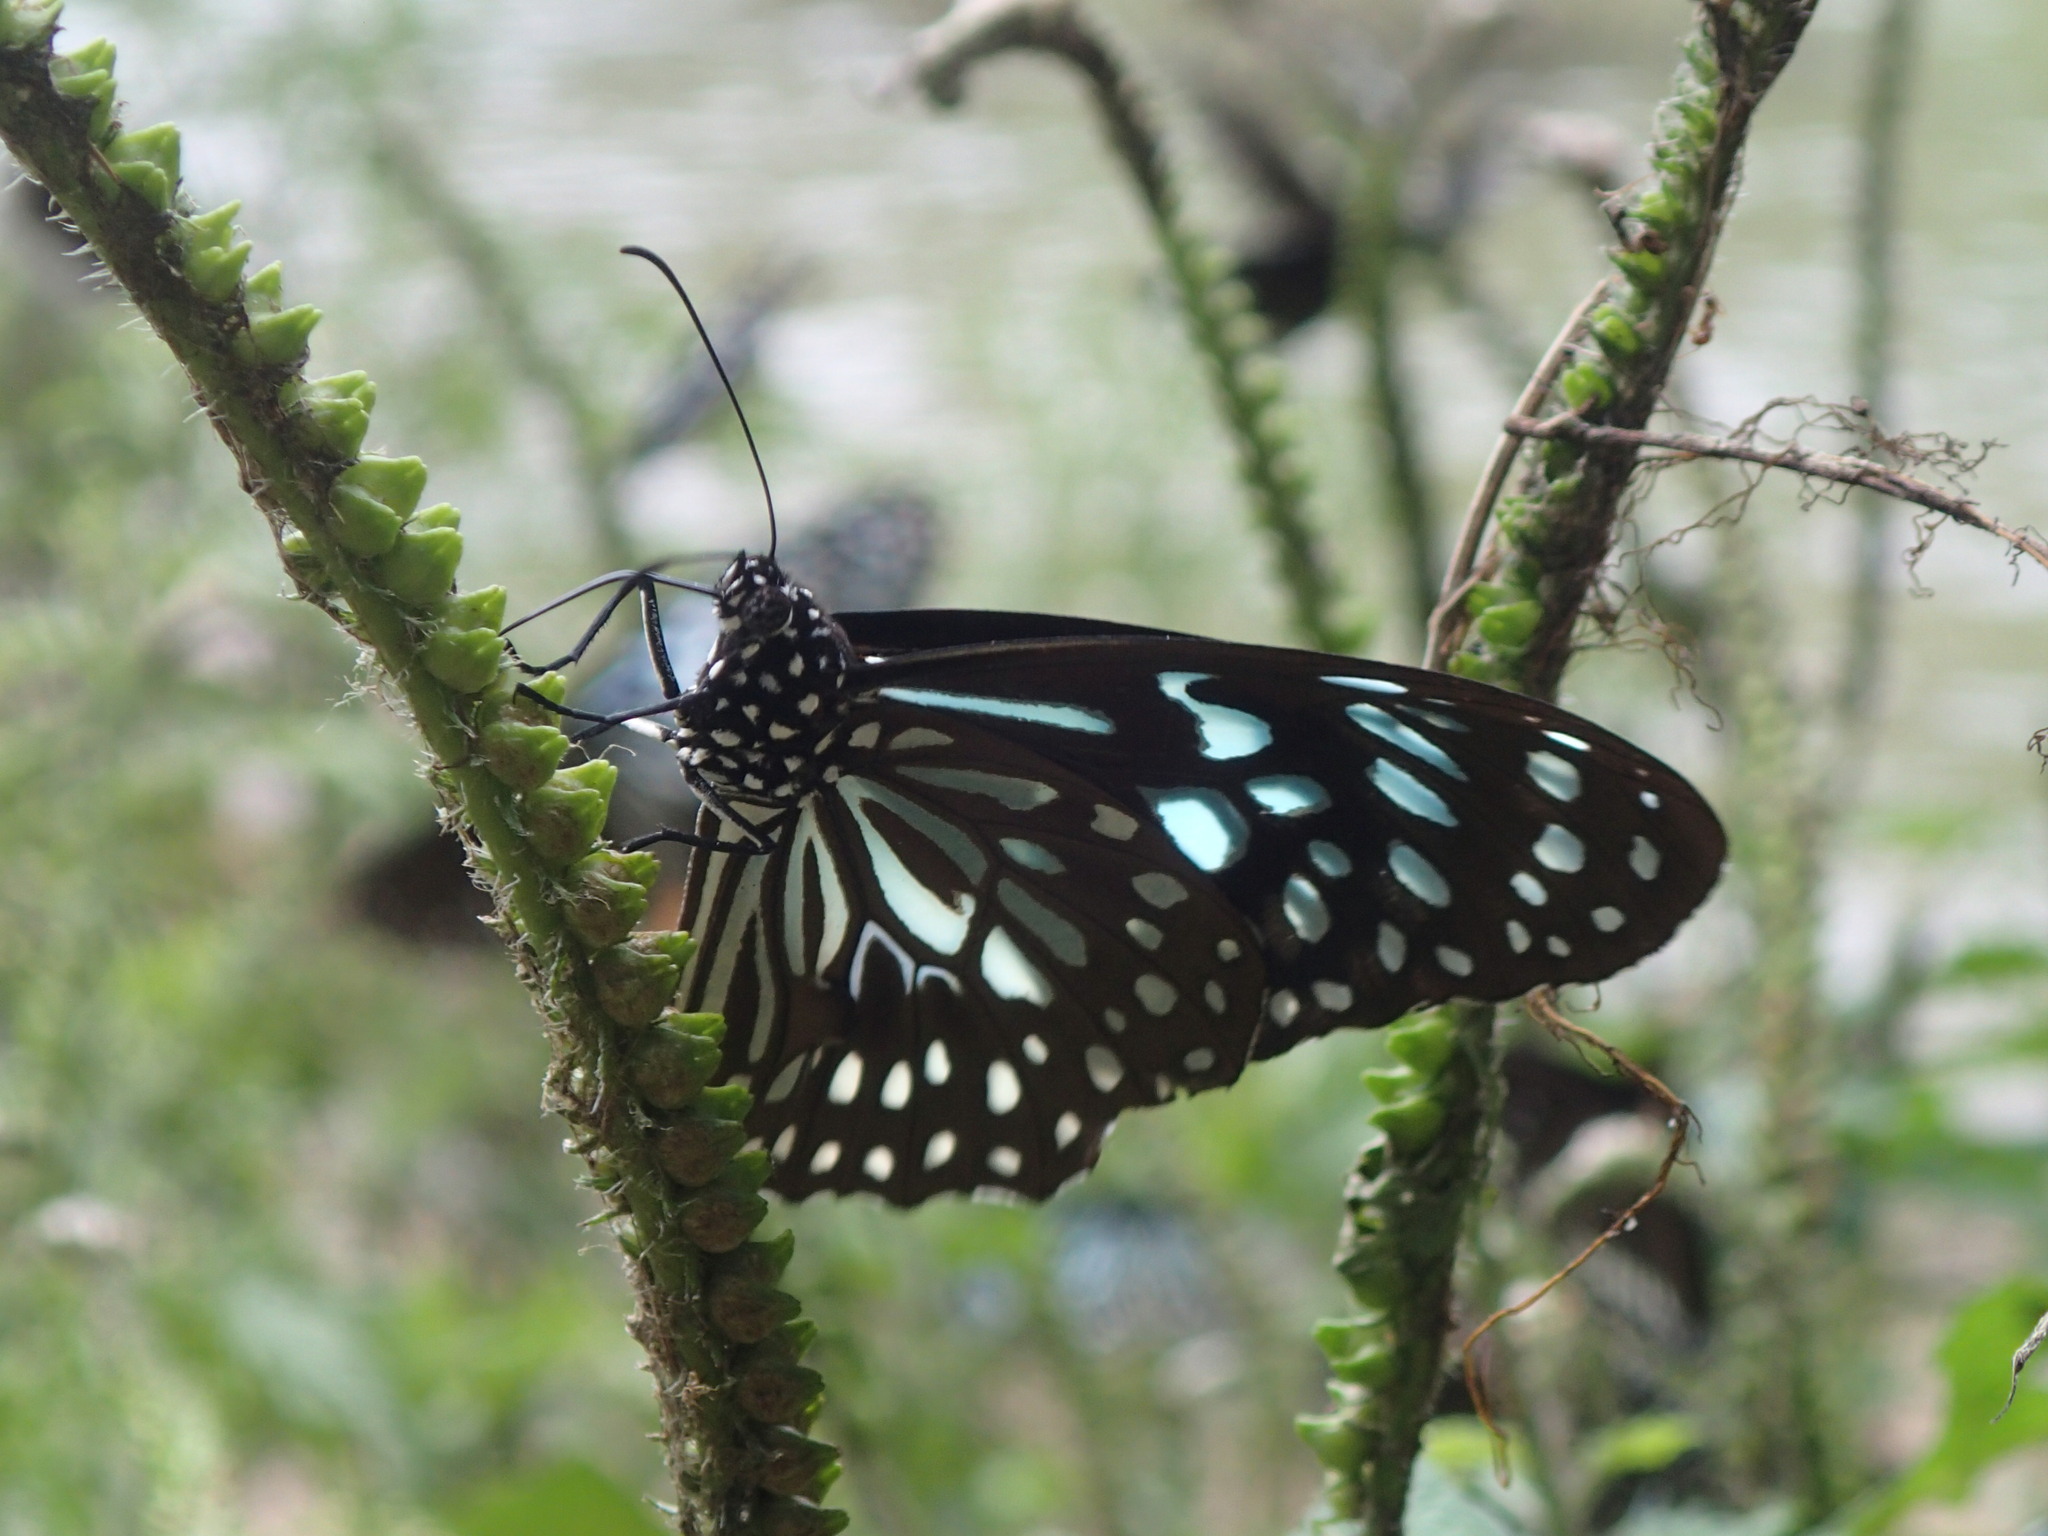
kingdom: Animalia
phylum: Arthropoda
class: Insecta
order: Lepidoptera
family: Nymphalidae
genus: Tirumala
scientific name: Tirumala septentrionis
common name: Dark blue tiger butterfly
